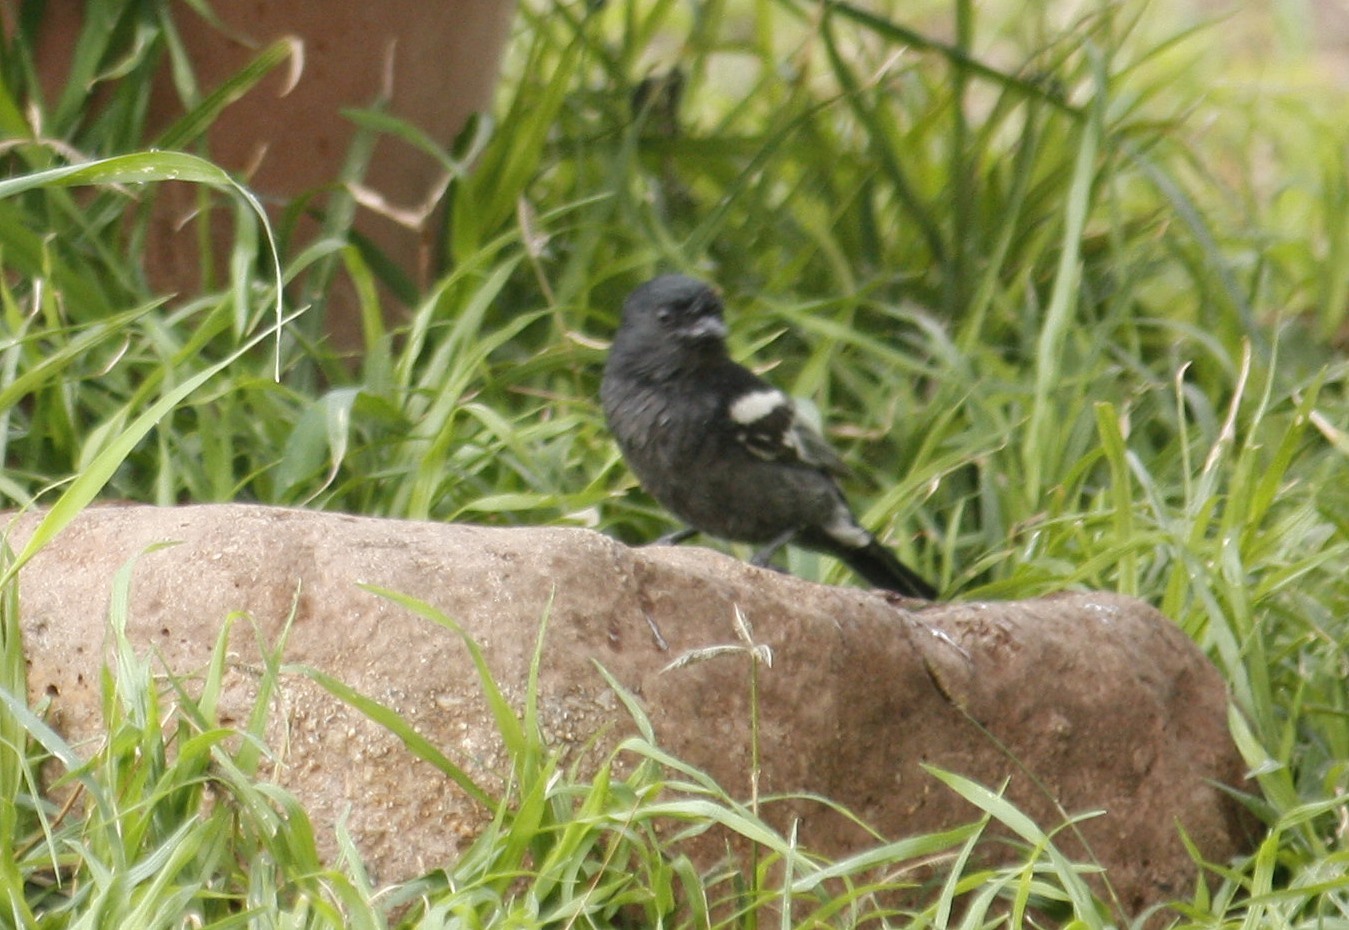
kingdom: Animalia
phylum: Chordata
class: Aves
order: Passeriformes
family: Paridae
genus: Parus
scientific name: Parus niger
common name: Southern black tit
